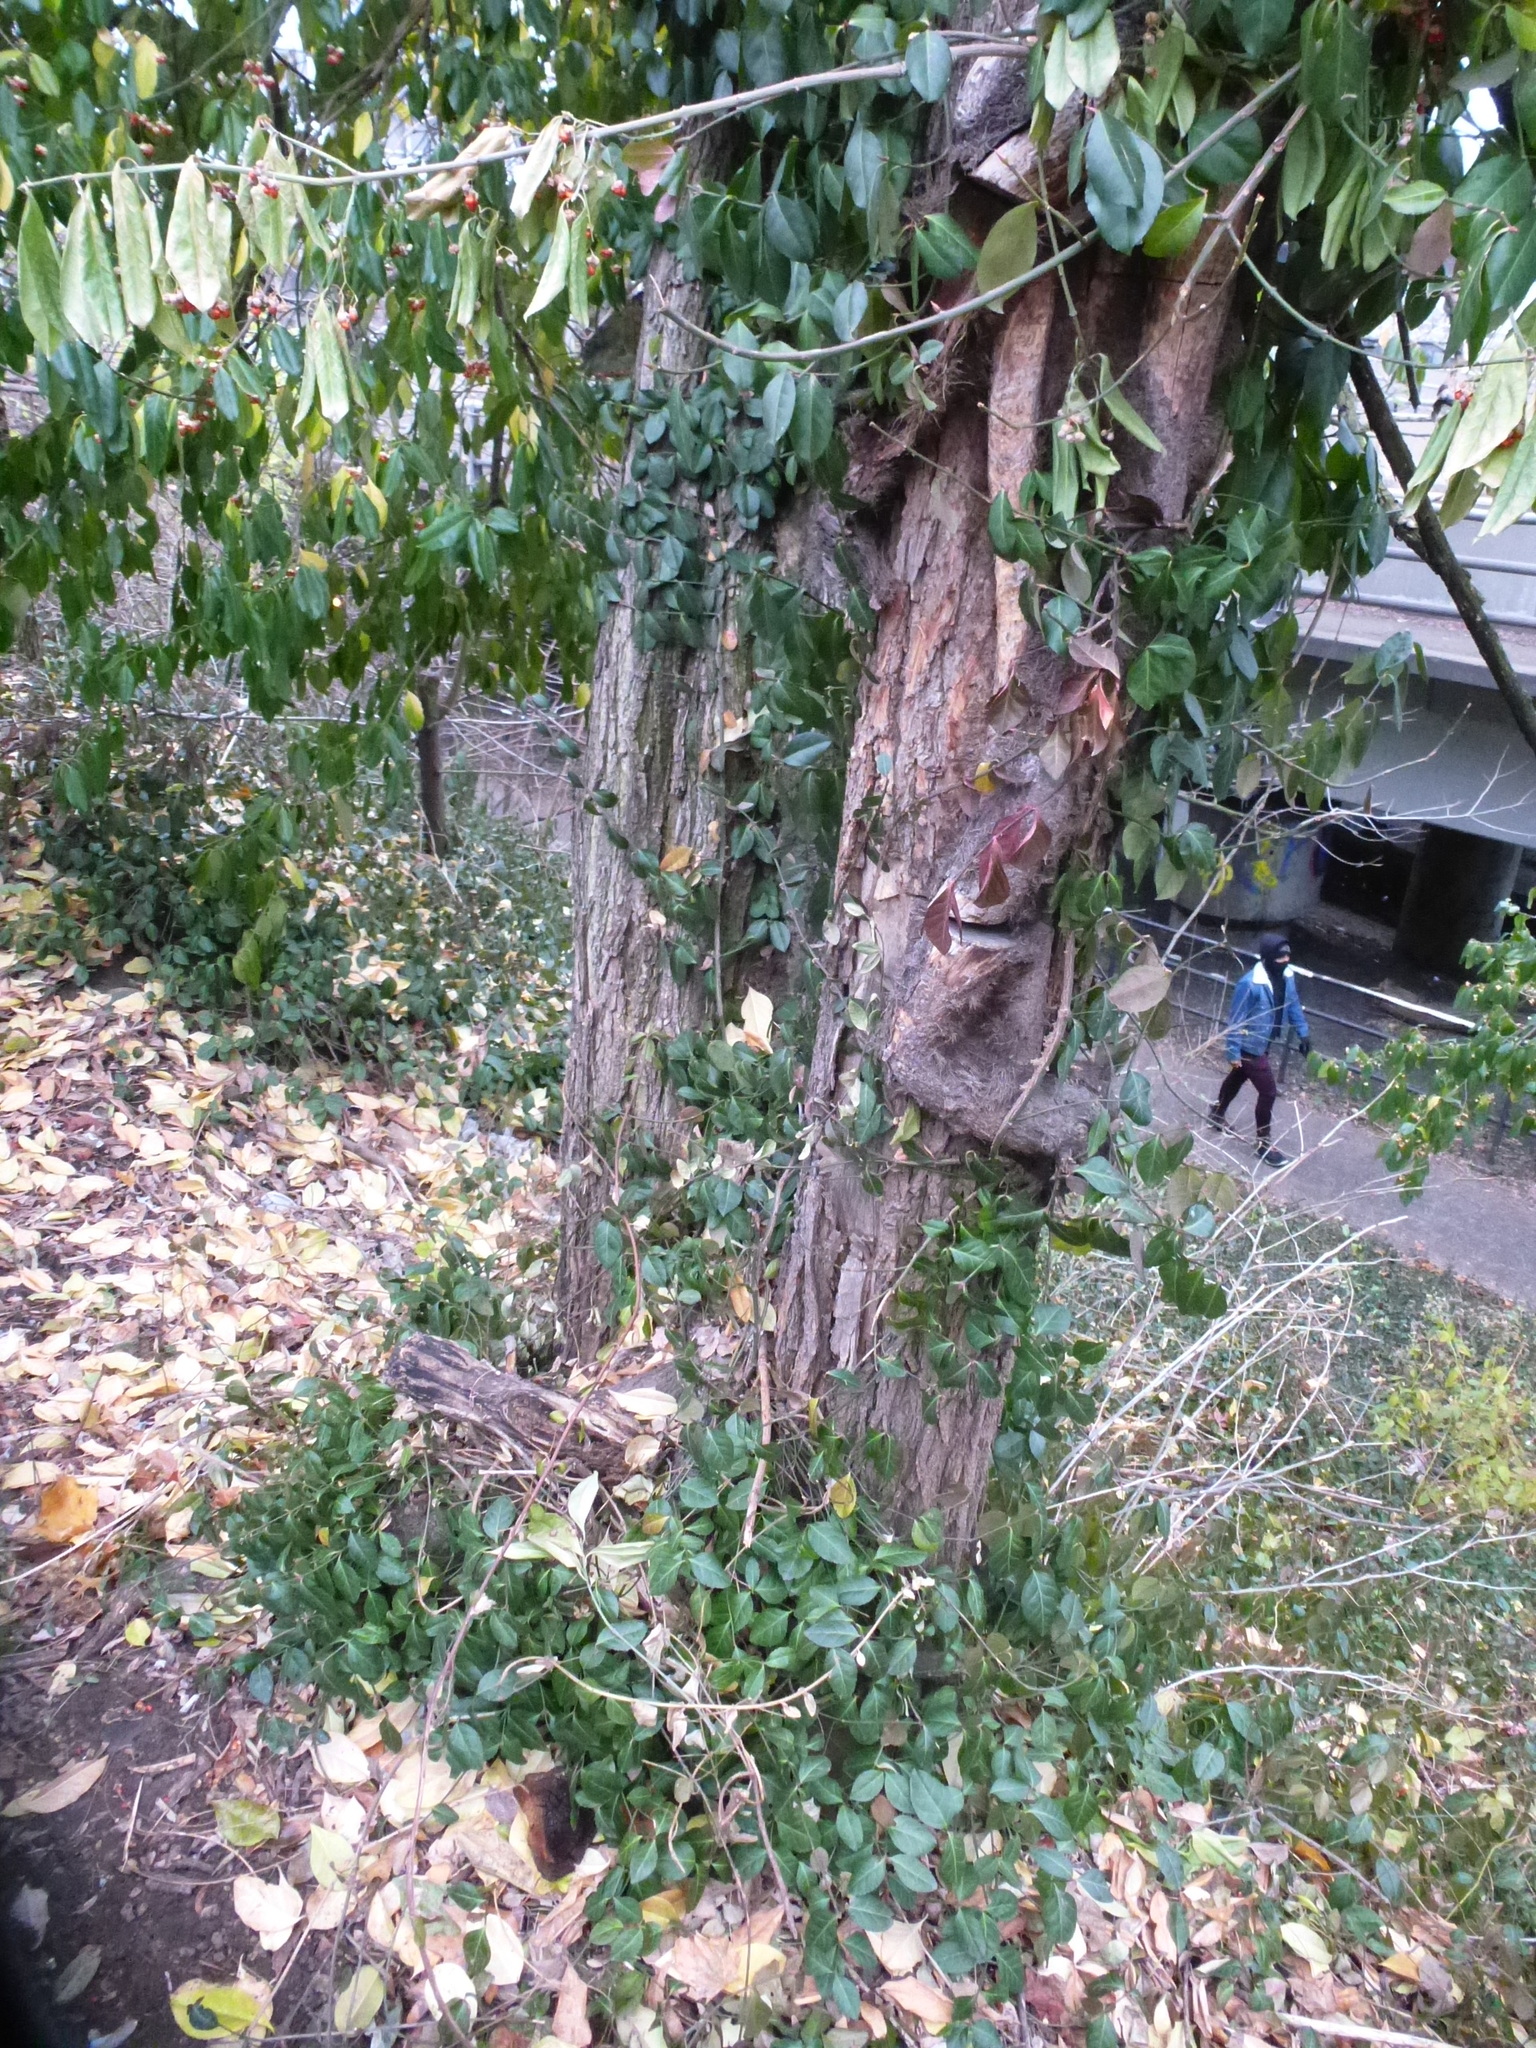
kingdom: Plantae
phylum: Tracheophyta
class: Magnoliopsida
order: Celastrales
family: Celastraceae
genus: Euonymus
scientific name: Euonymus fortunei
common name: Climbing euonymus
